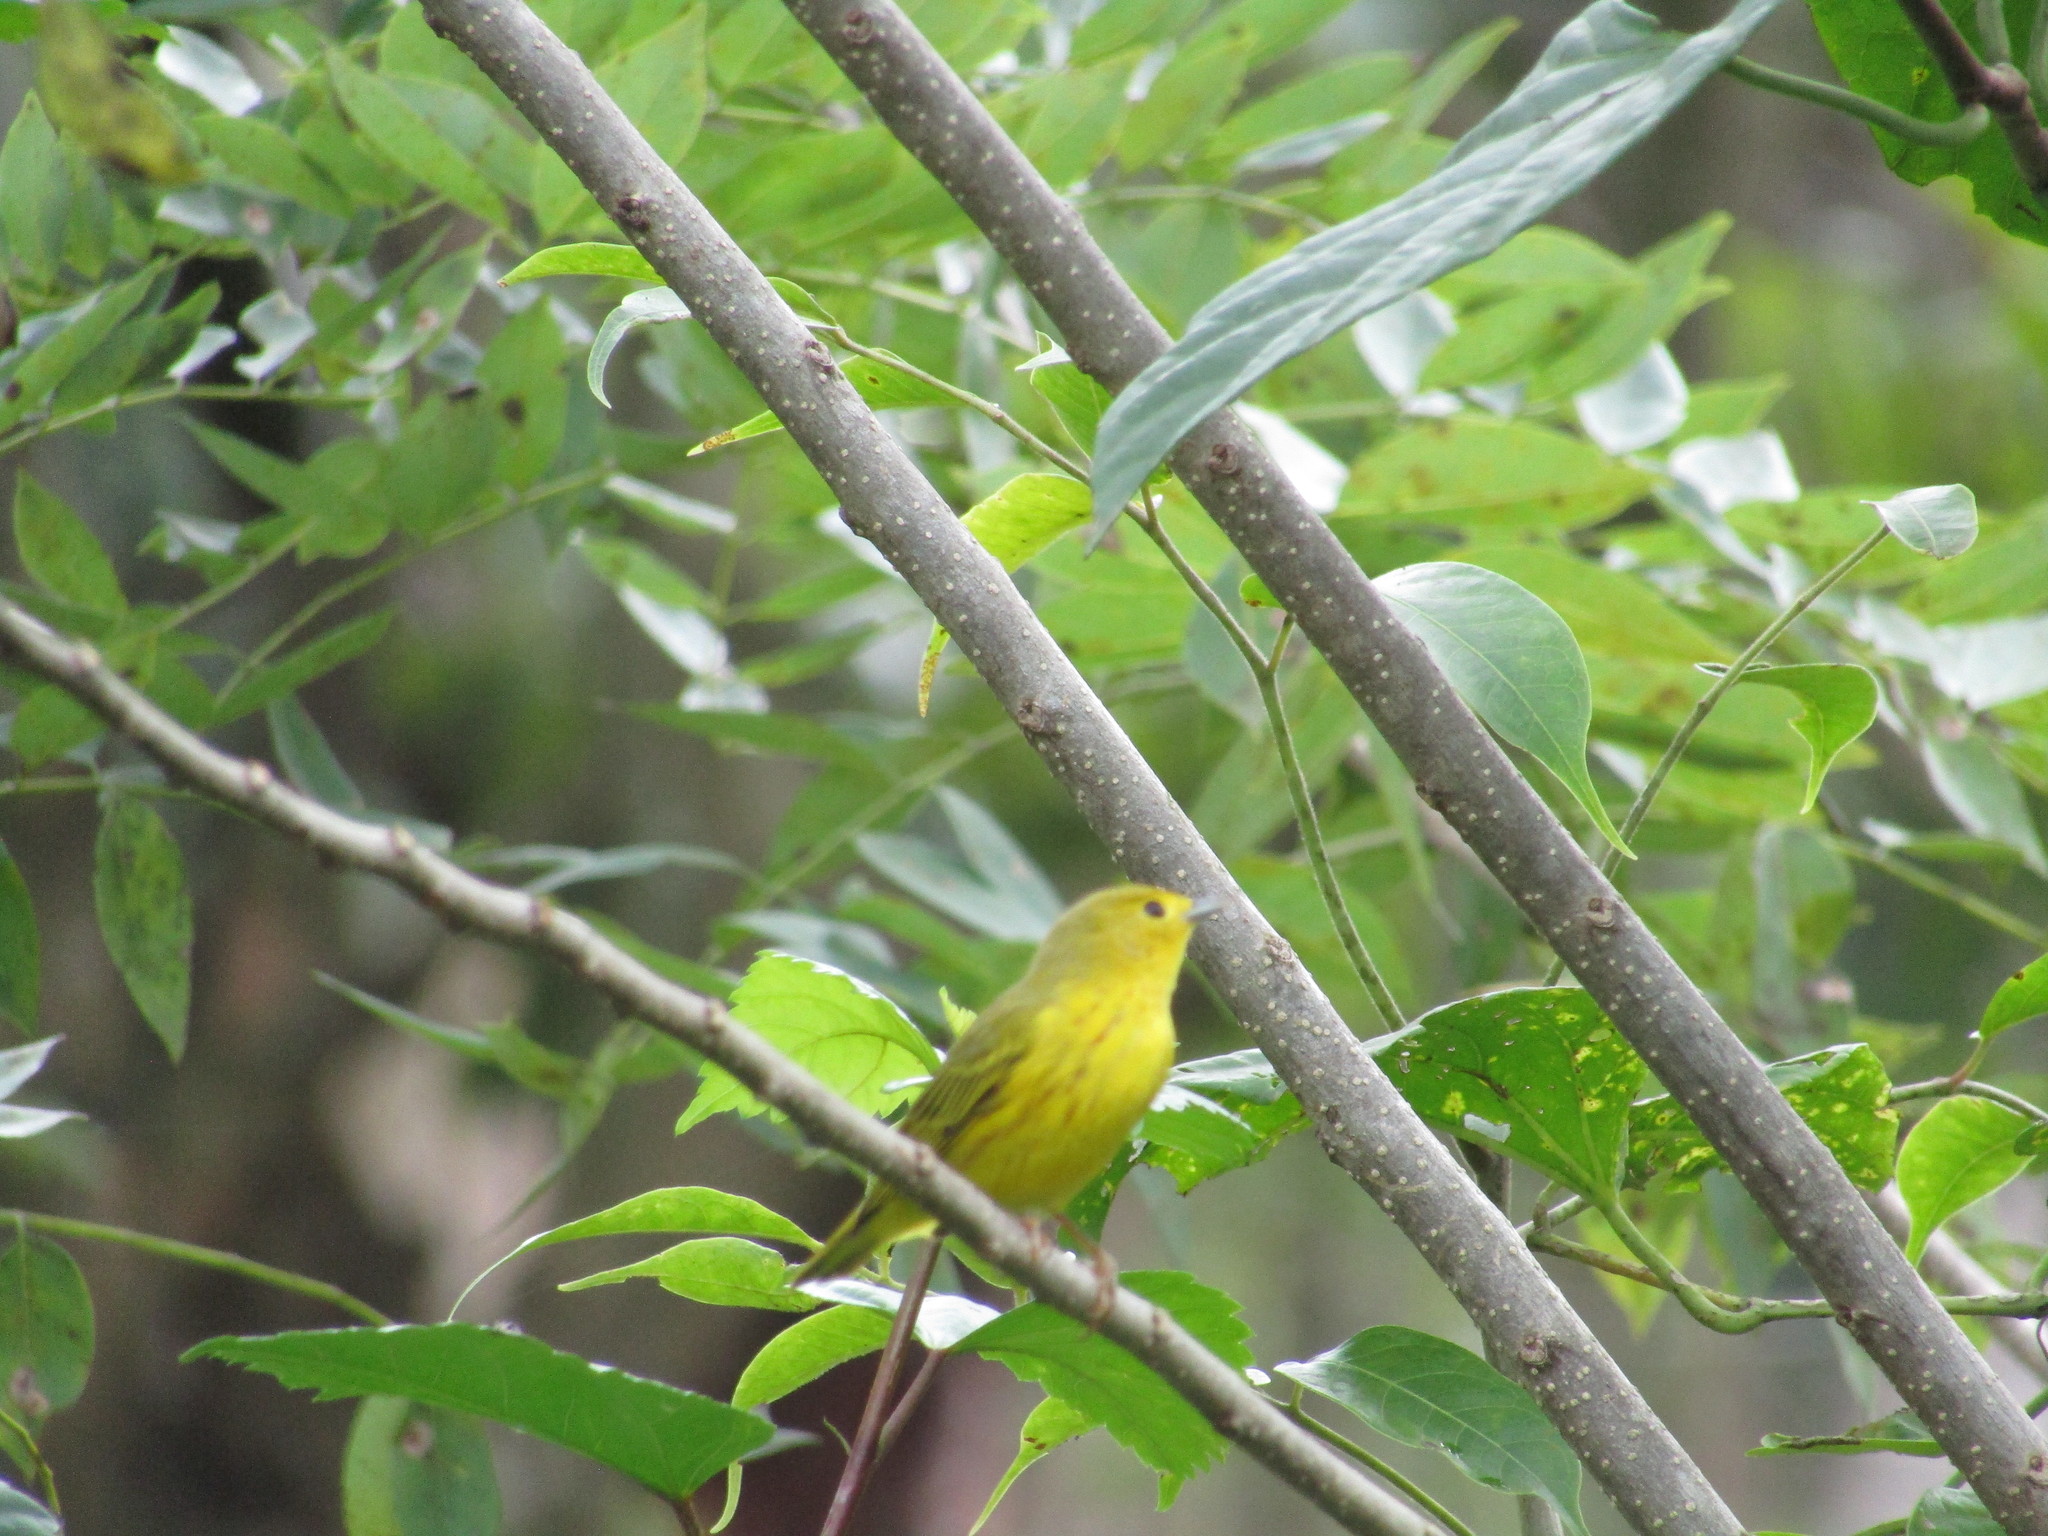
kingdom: Animalia
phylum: Chordata
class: Aves
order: Passeriformes
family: Parulidae
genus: Setophaga
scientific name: Setophaga petechia
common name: Yellow warbler
